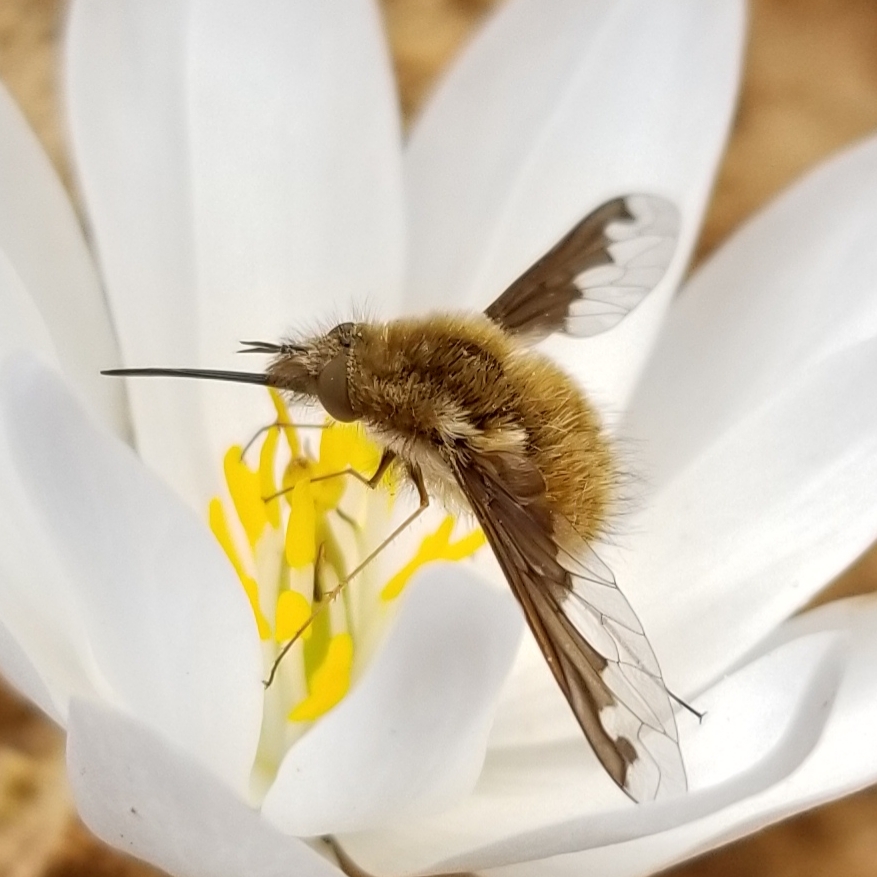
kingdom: Animalia
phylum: Arthropoda
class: Insecta
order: Diptera
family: Bombyliidae
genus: Bombylius
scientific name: Bombylius major
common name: Bee fly
